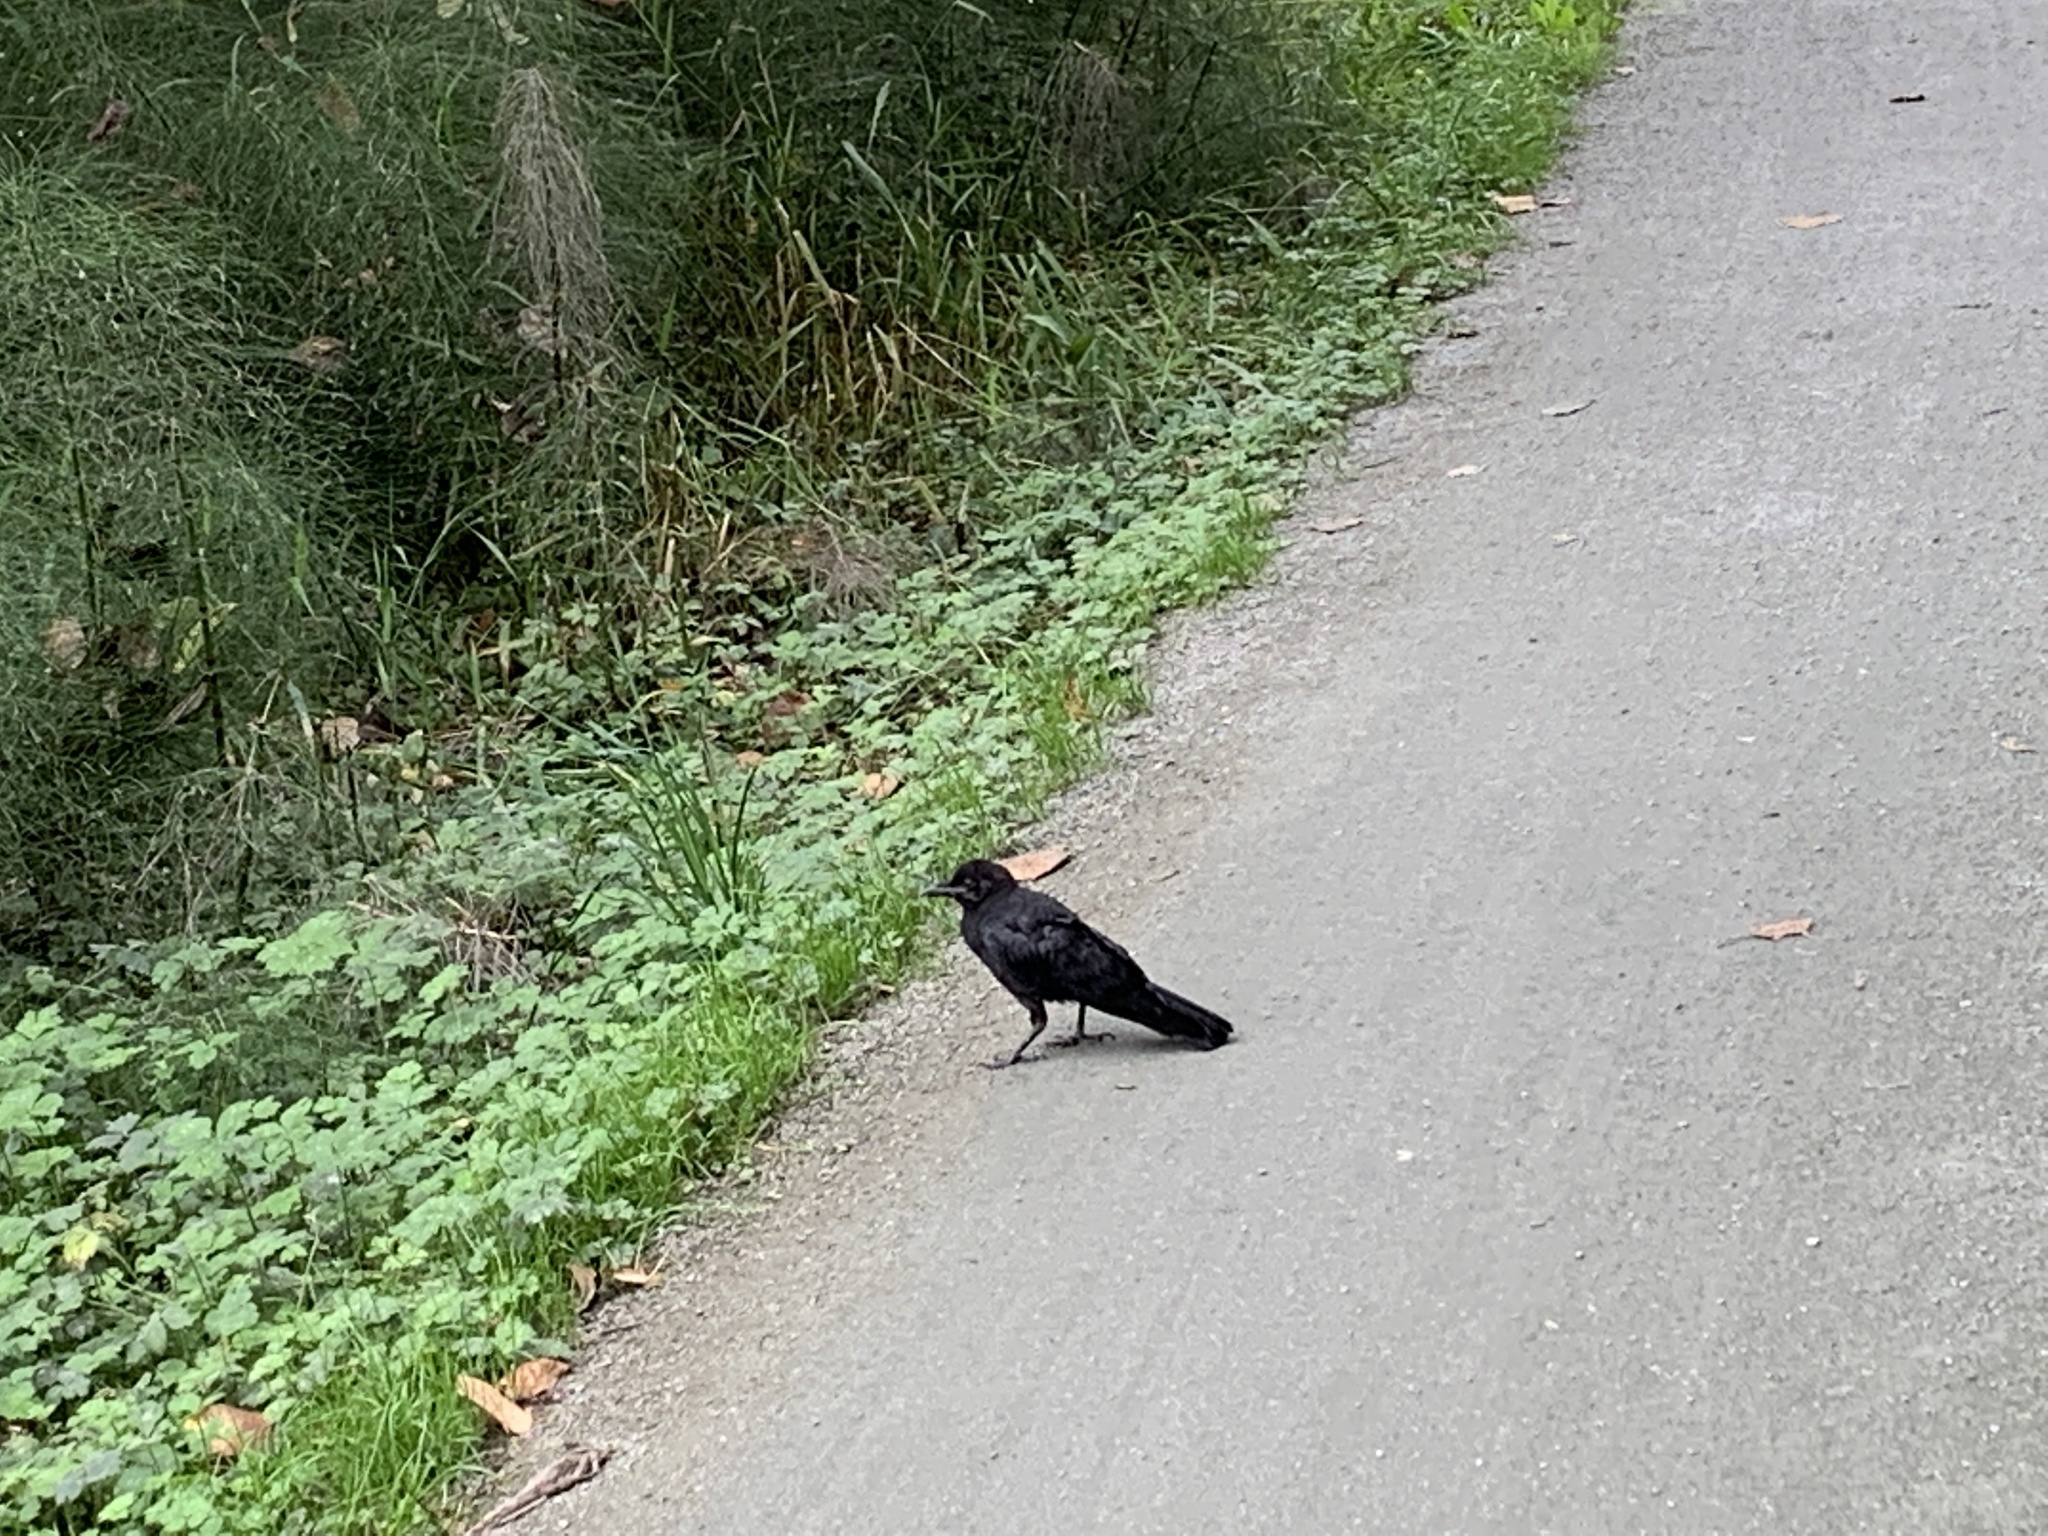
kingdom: Animalia
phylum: Chordata
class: Aves
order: Passeriformes
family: Corvidae
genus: Corvus
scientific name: Corvus brachyrhynchos
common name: American crow
